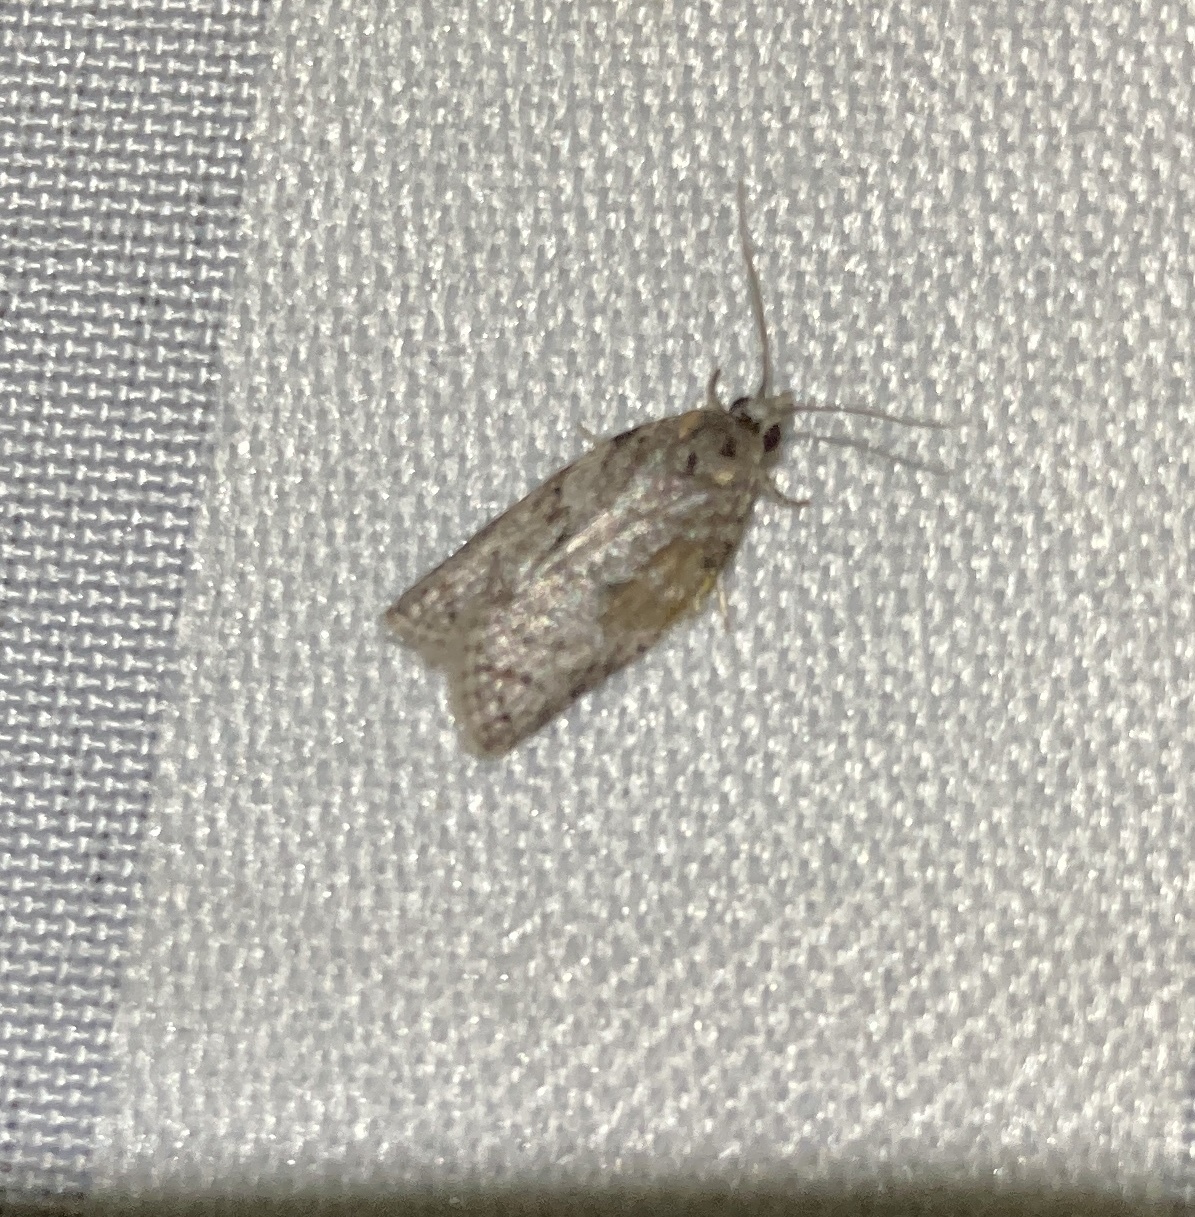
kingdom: Animalia
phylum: Arthropoda
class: Insecta
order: Lepidoptera
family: Tortricidae
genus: Isotenes
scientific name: Isotenes miserana
